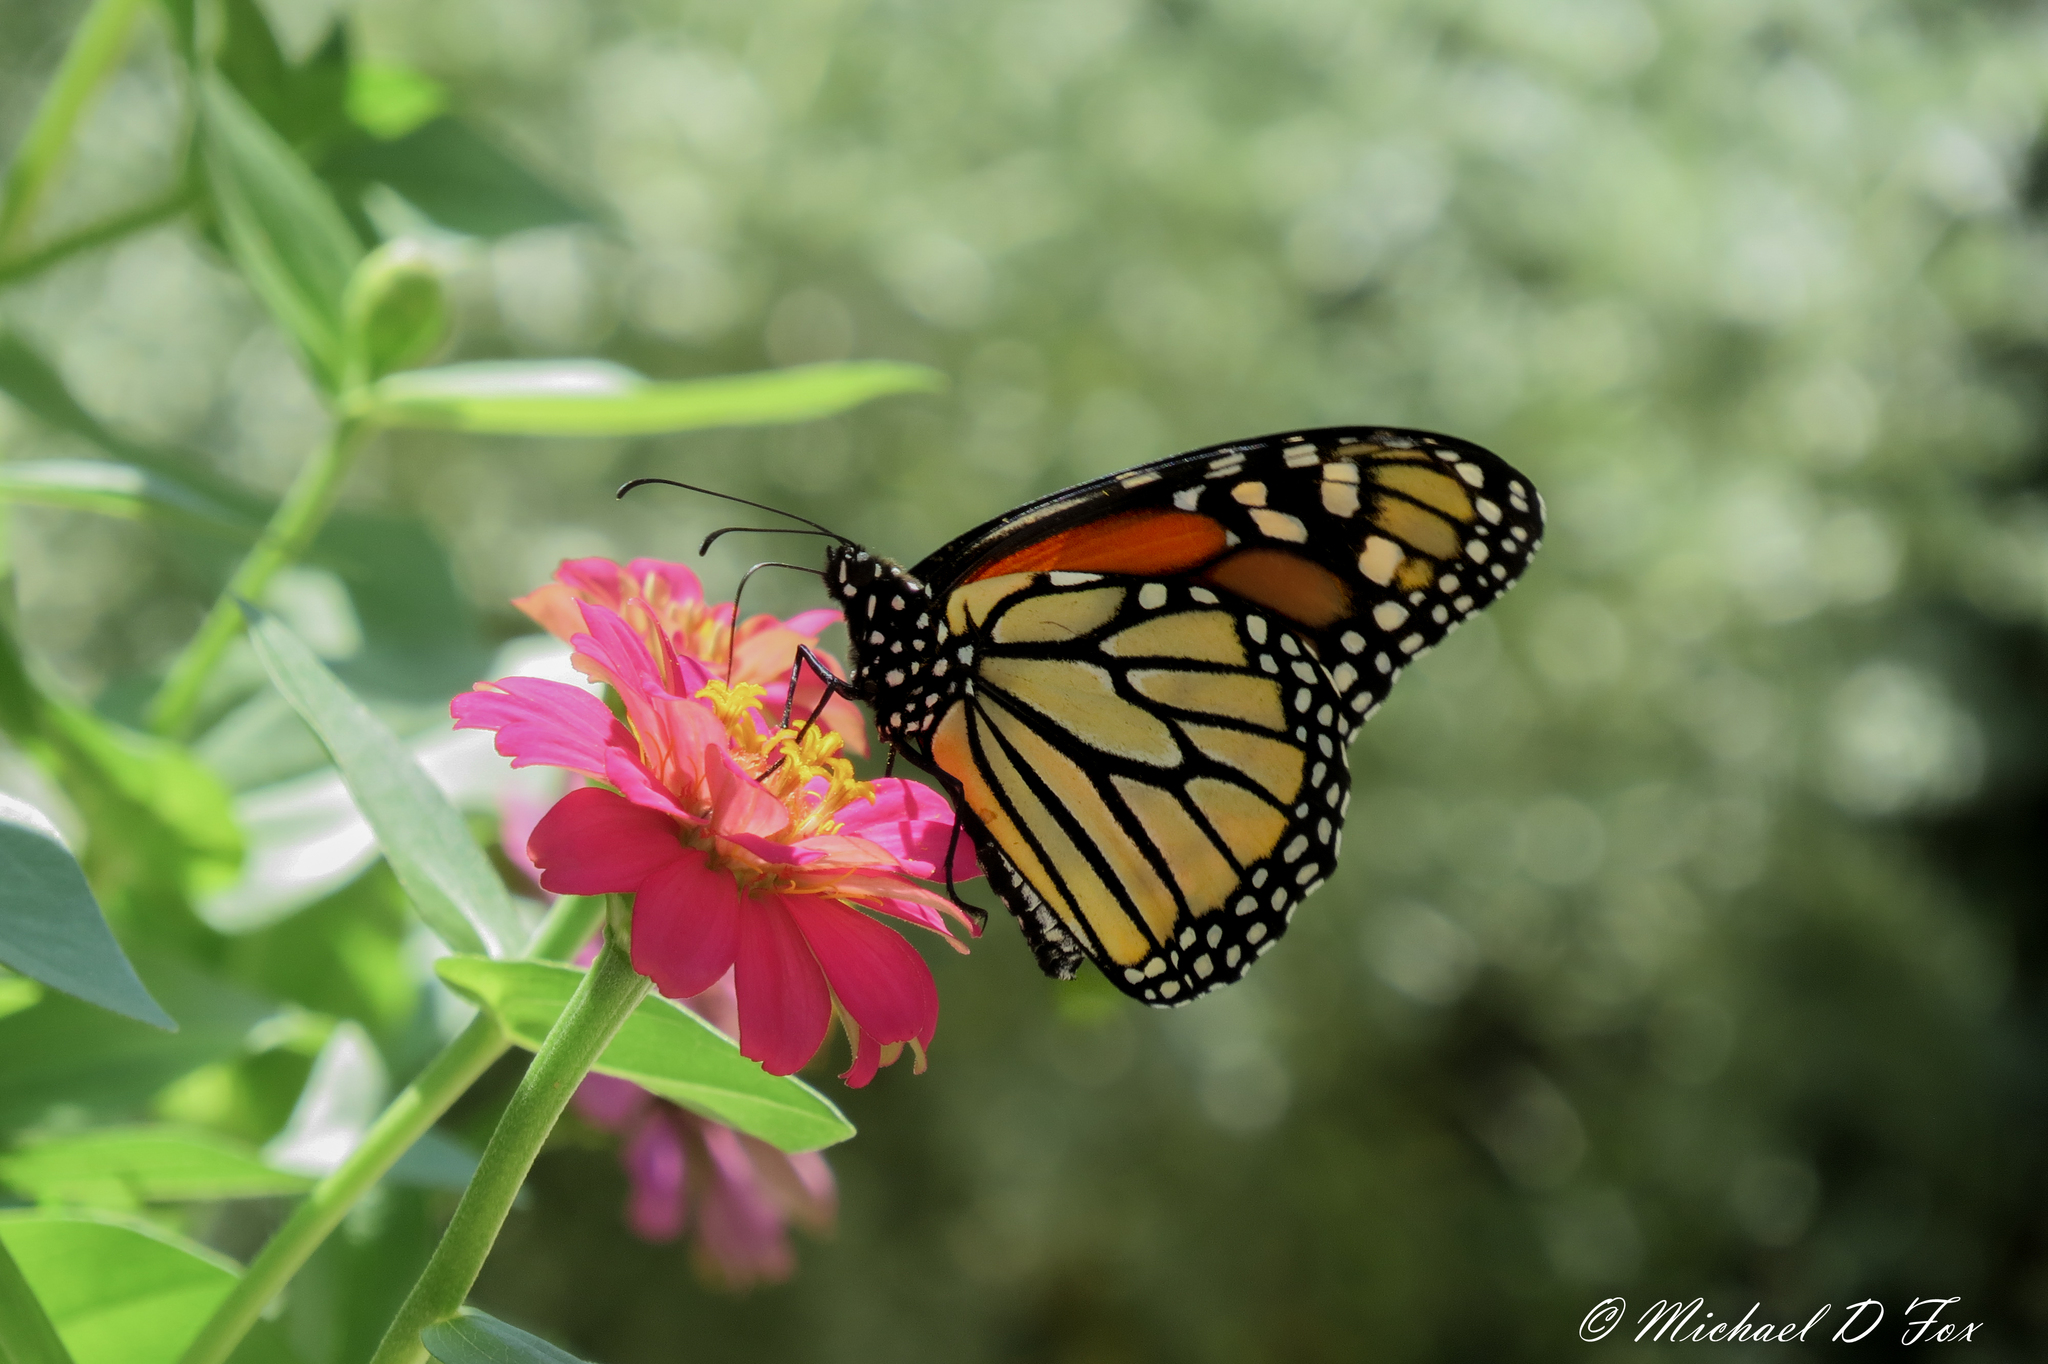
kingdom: Animalia
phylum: Arthropoda
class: Insecta
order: Lepidoptera
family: Nymphalidae
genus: Danaus
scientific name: Danaus plexippus
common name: Monarch
